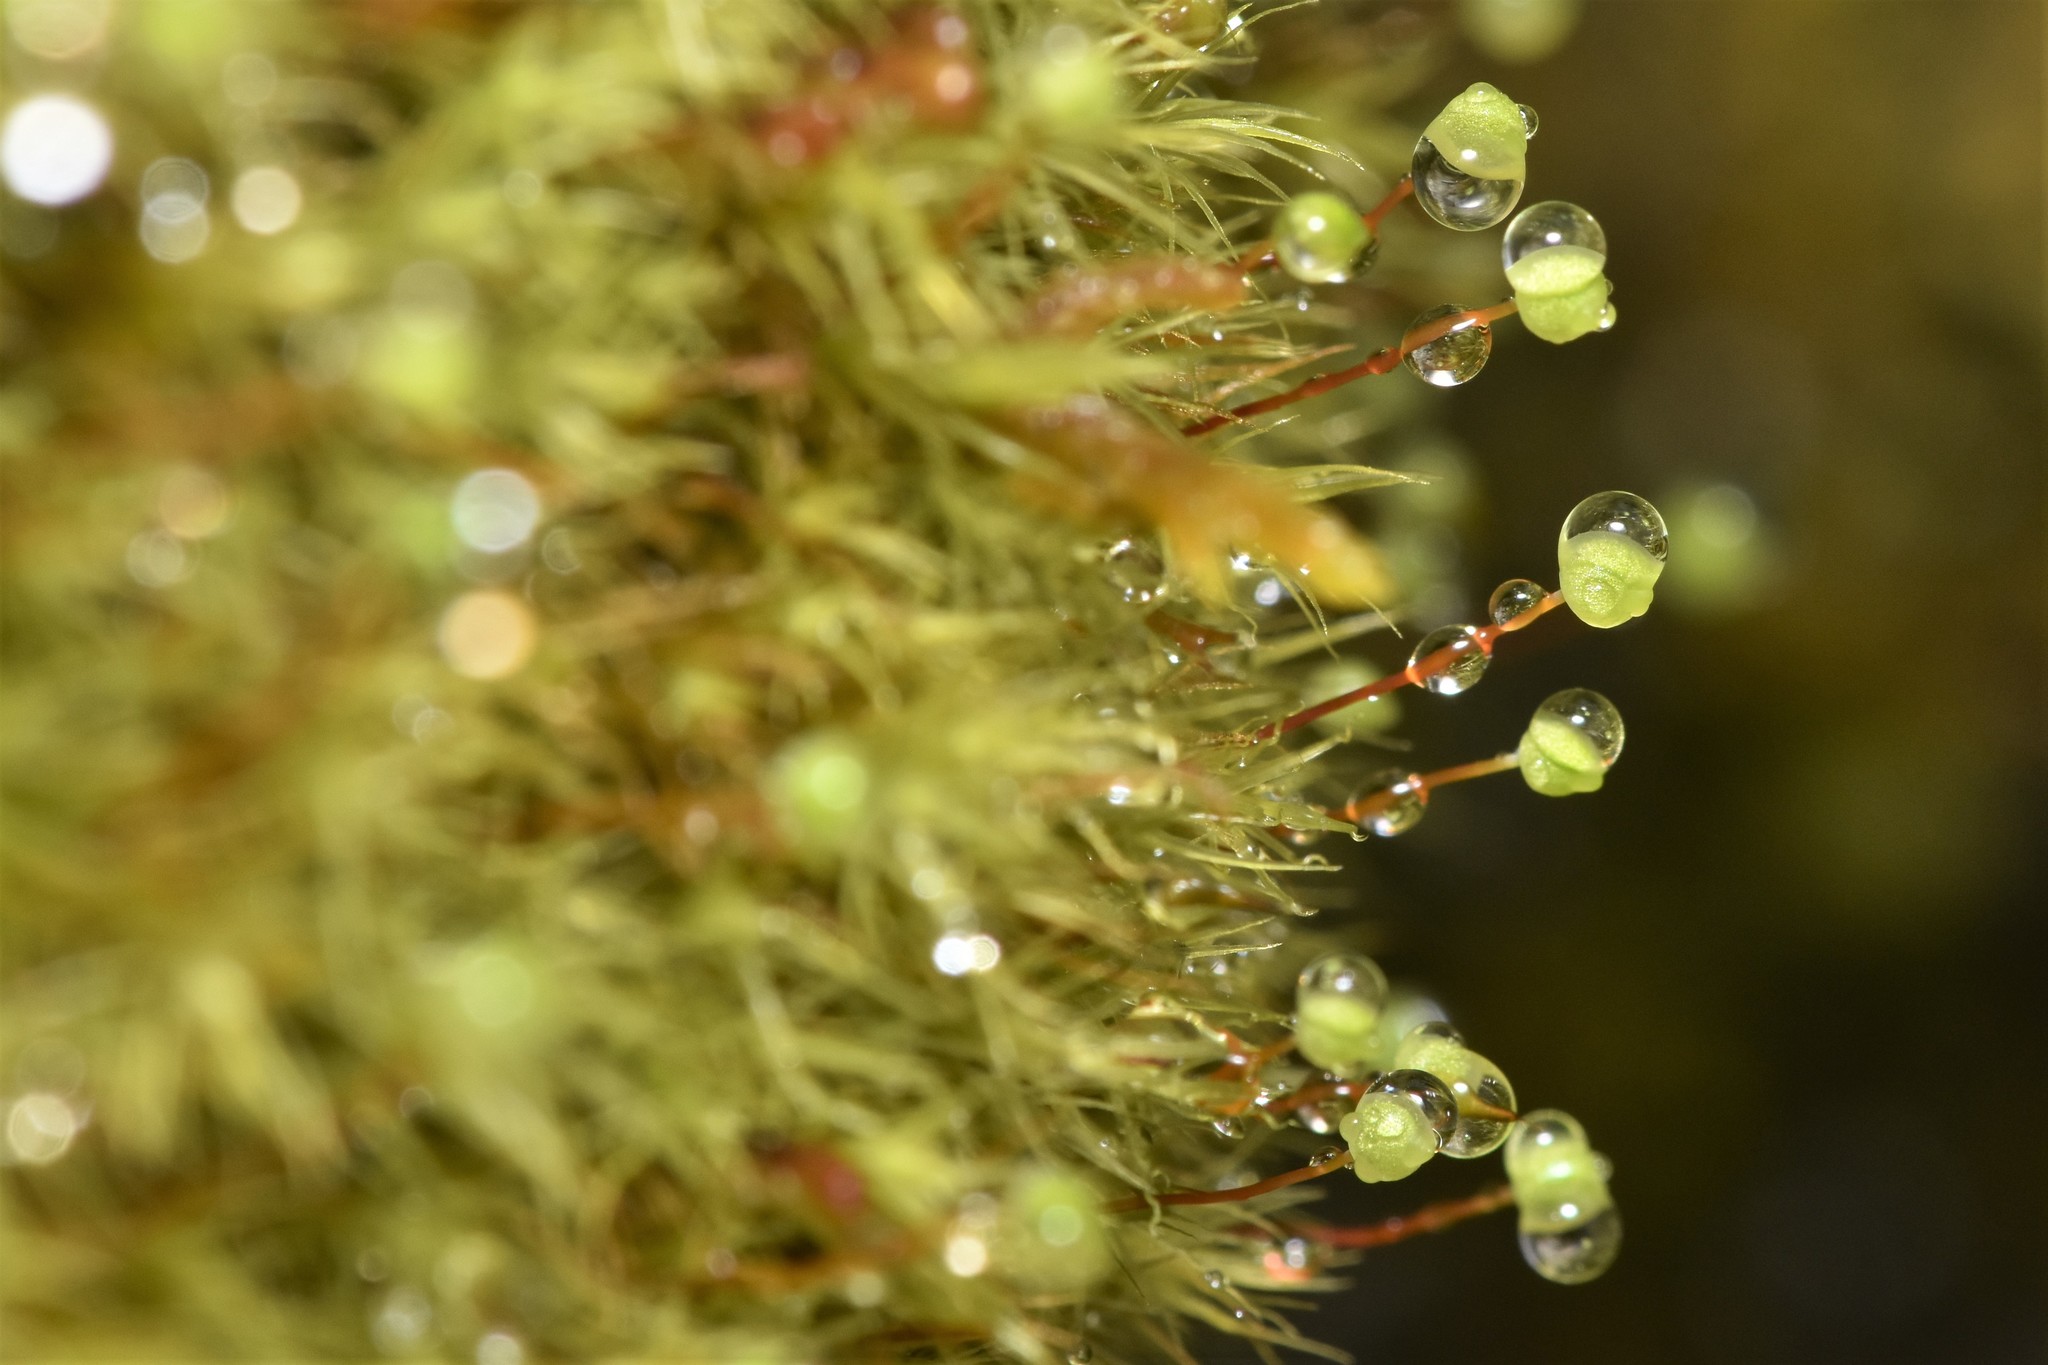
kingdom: Plantae
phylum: Bryophyta
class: Bryopsida
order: Bartramiales
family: Bartramiaceae
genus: Bartramia
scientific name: Bartramia ithyphylla
